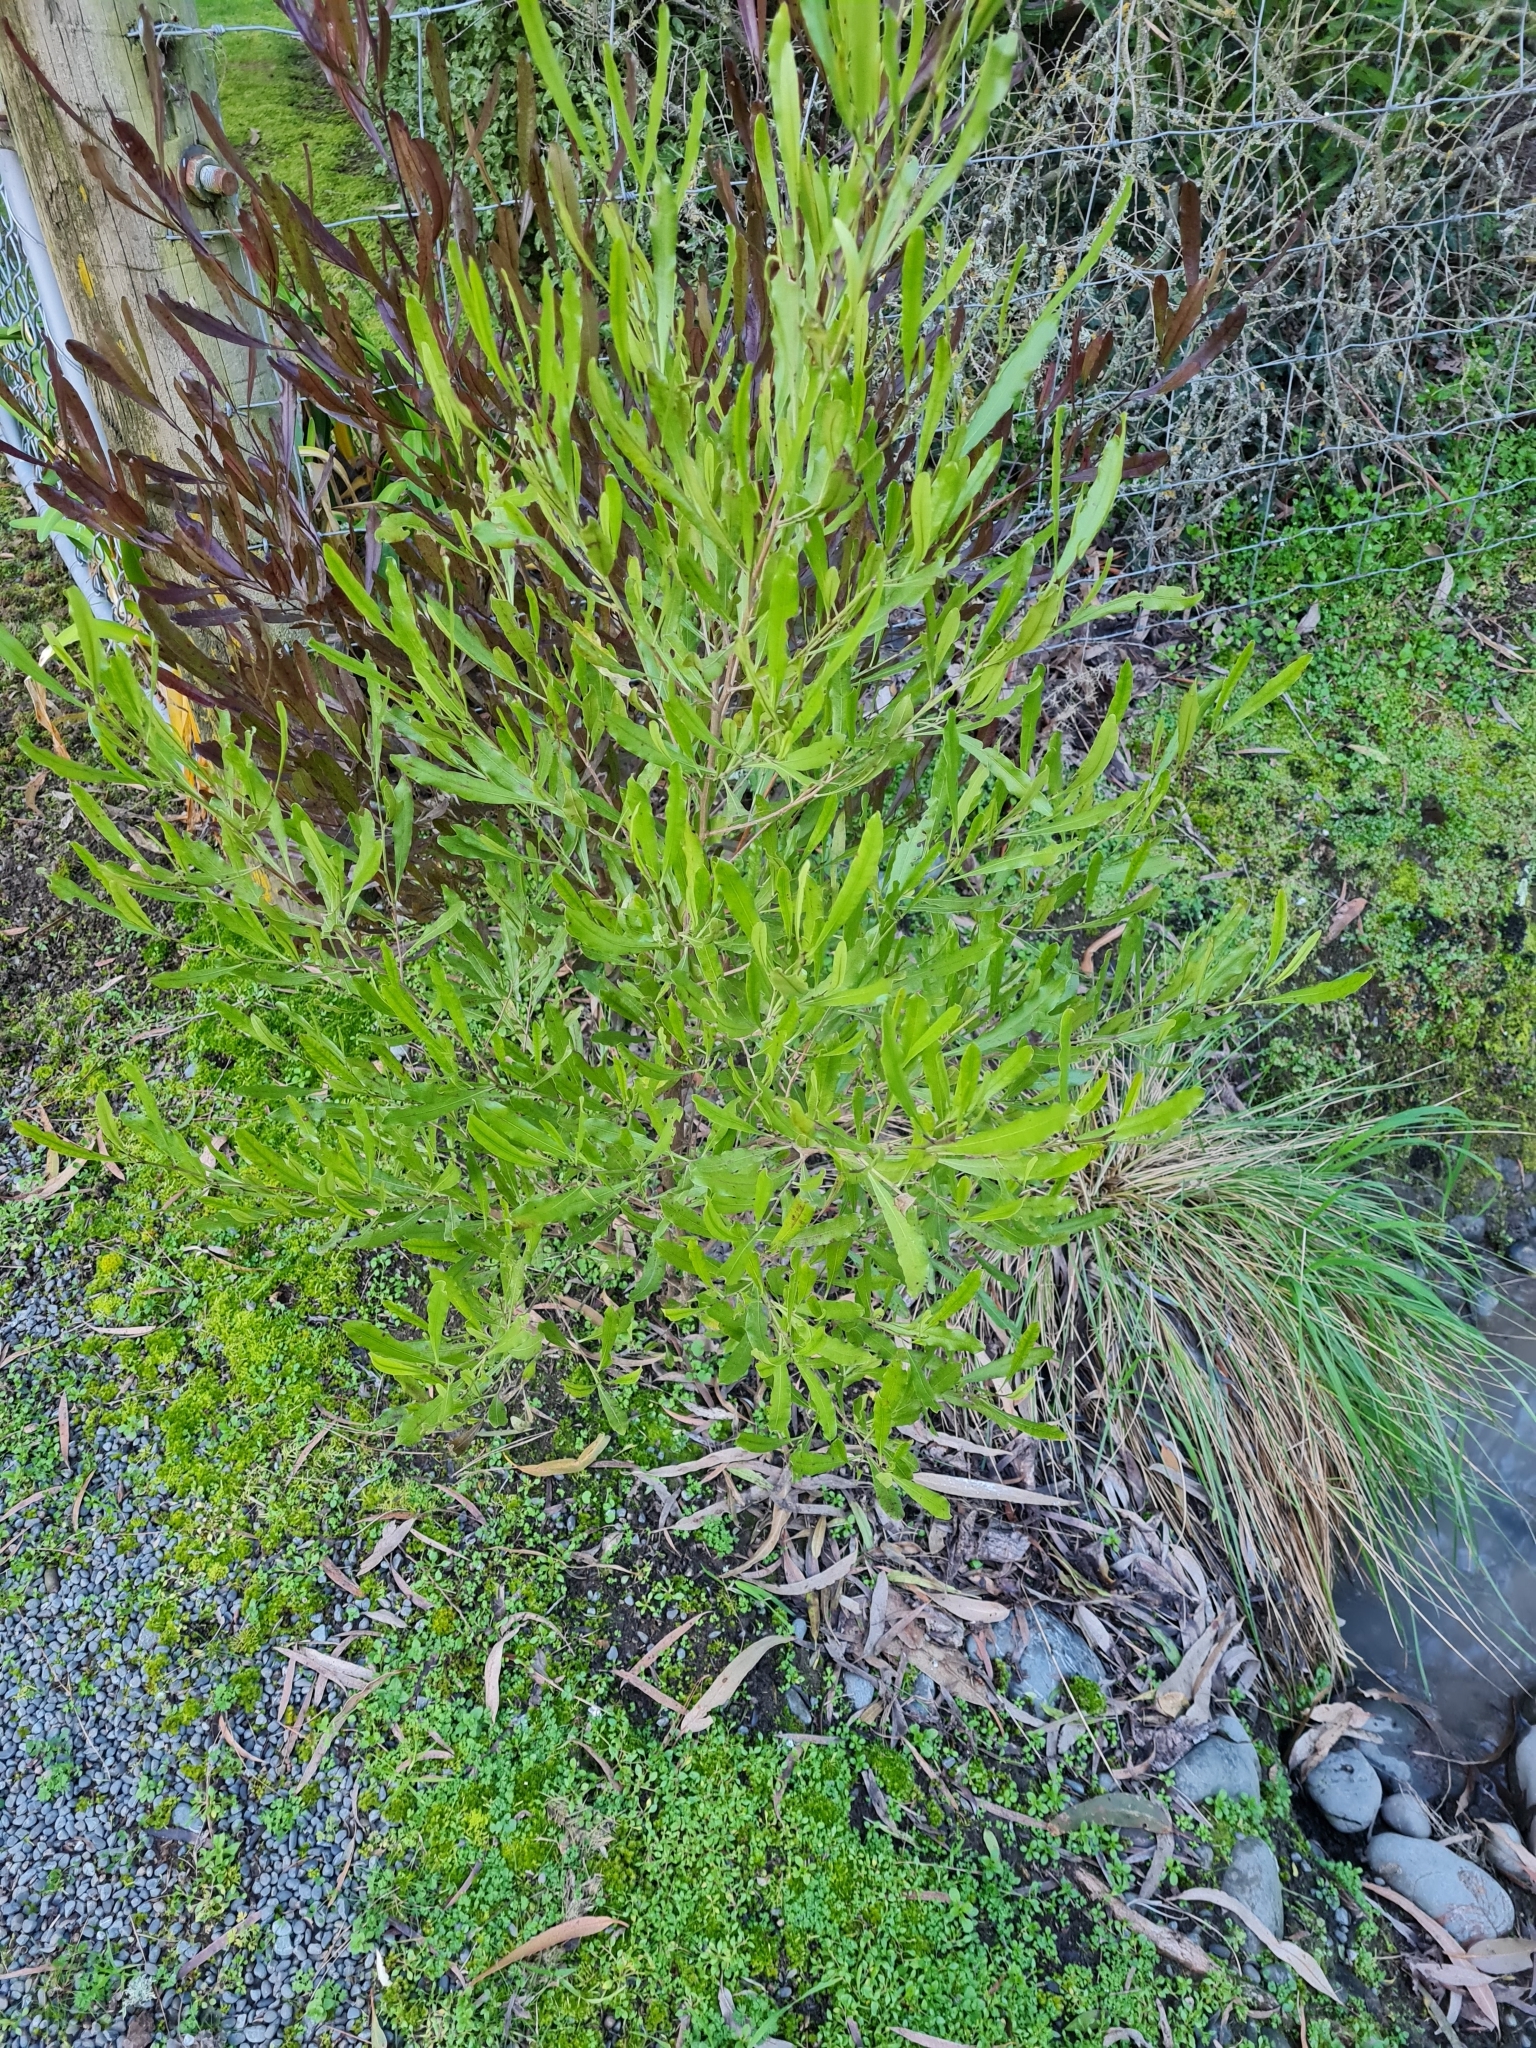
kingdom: Plantae
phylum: Tracheophyta
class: Magnoliopsida
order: Sapindales
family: Sapindaceae
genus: Dodonaea
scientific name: Dodonaea viscosa
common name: Hopbush
